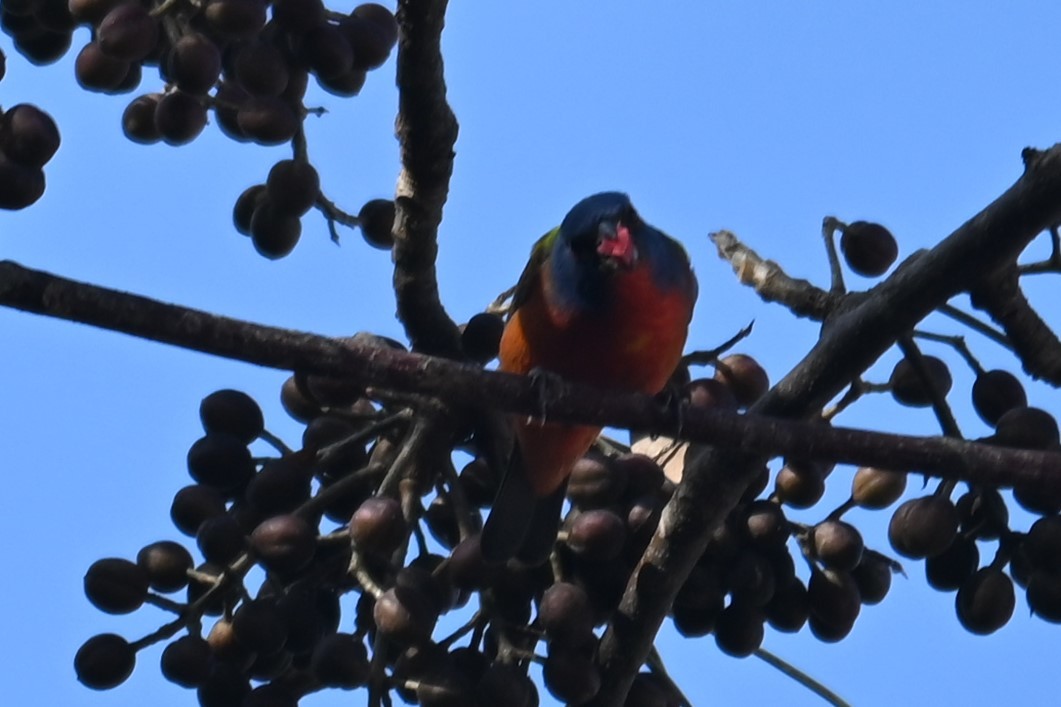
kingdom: Animalia
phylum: Chordata
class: Aves
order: Passeriformes
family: Cardinalidae
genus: Passerina
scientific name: Passerina ciris
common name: Painted bunting
